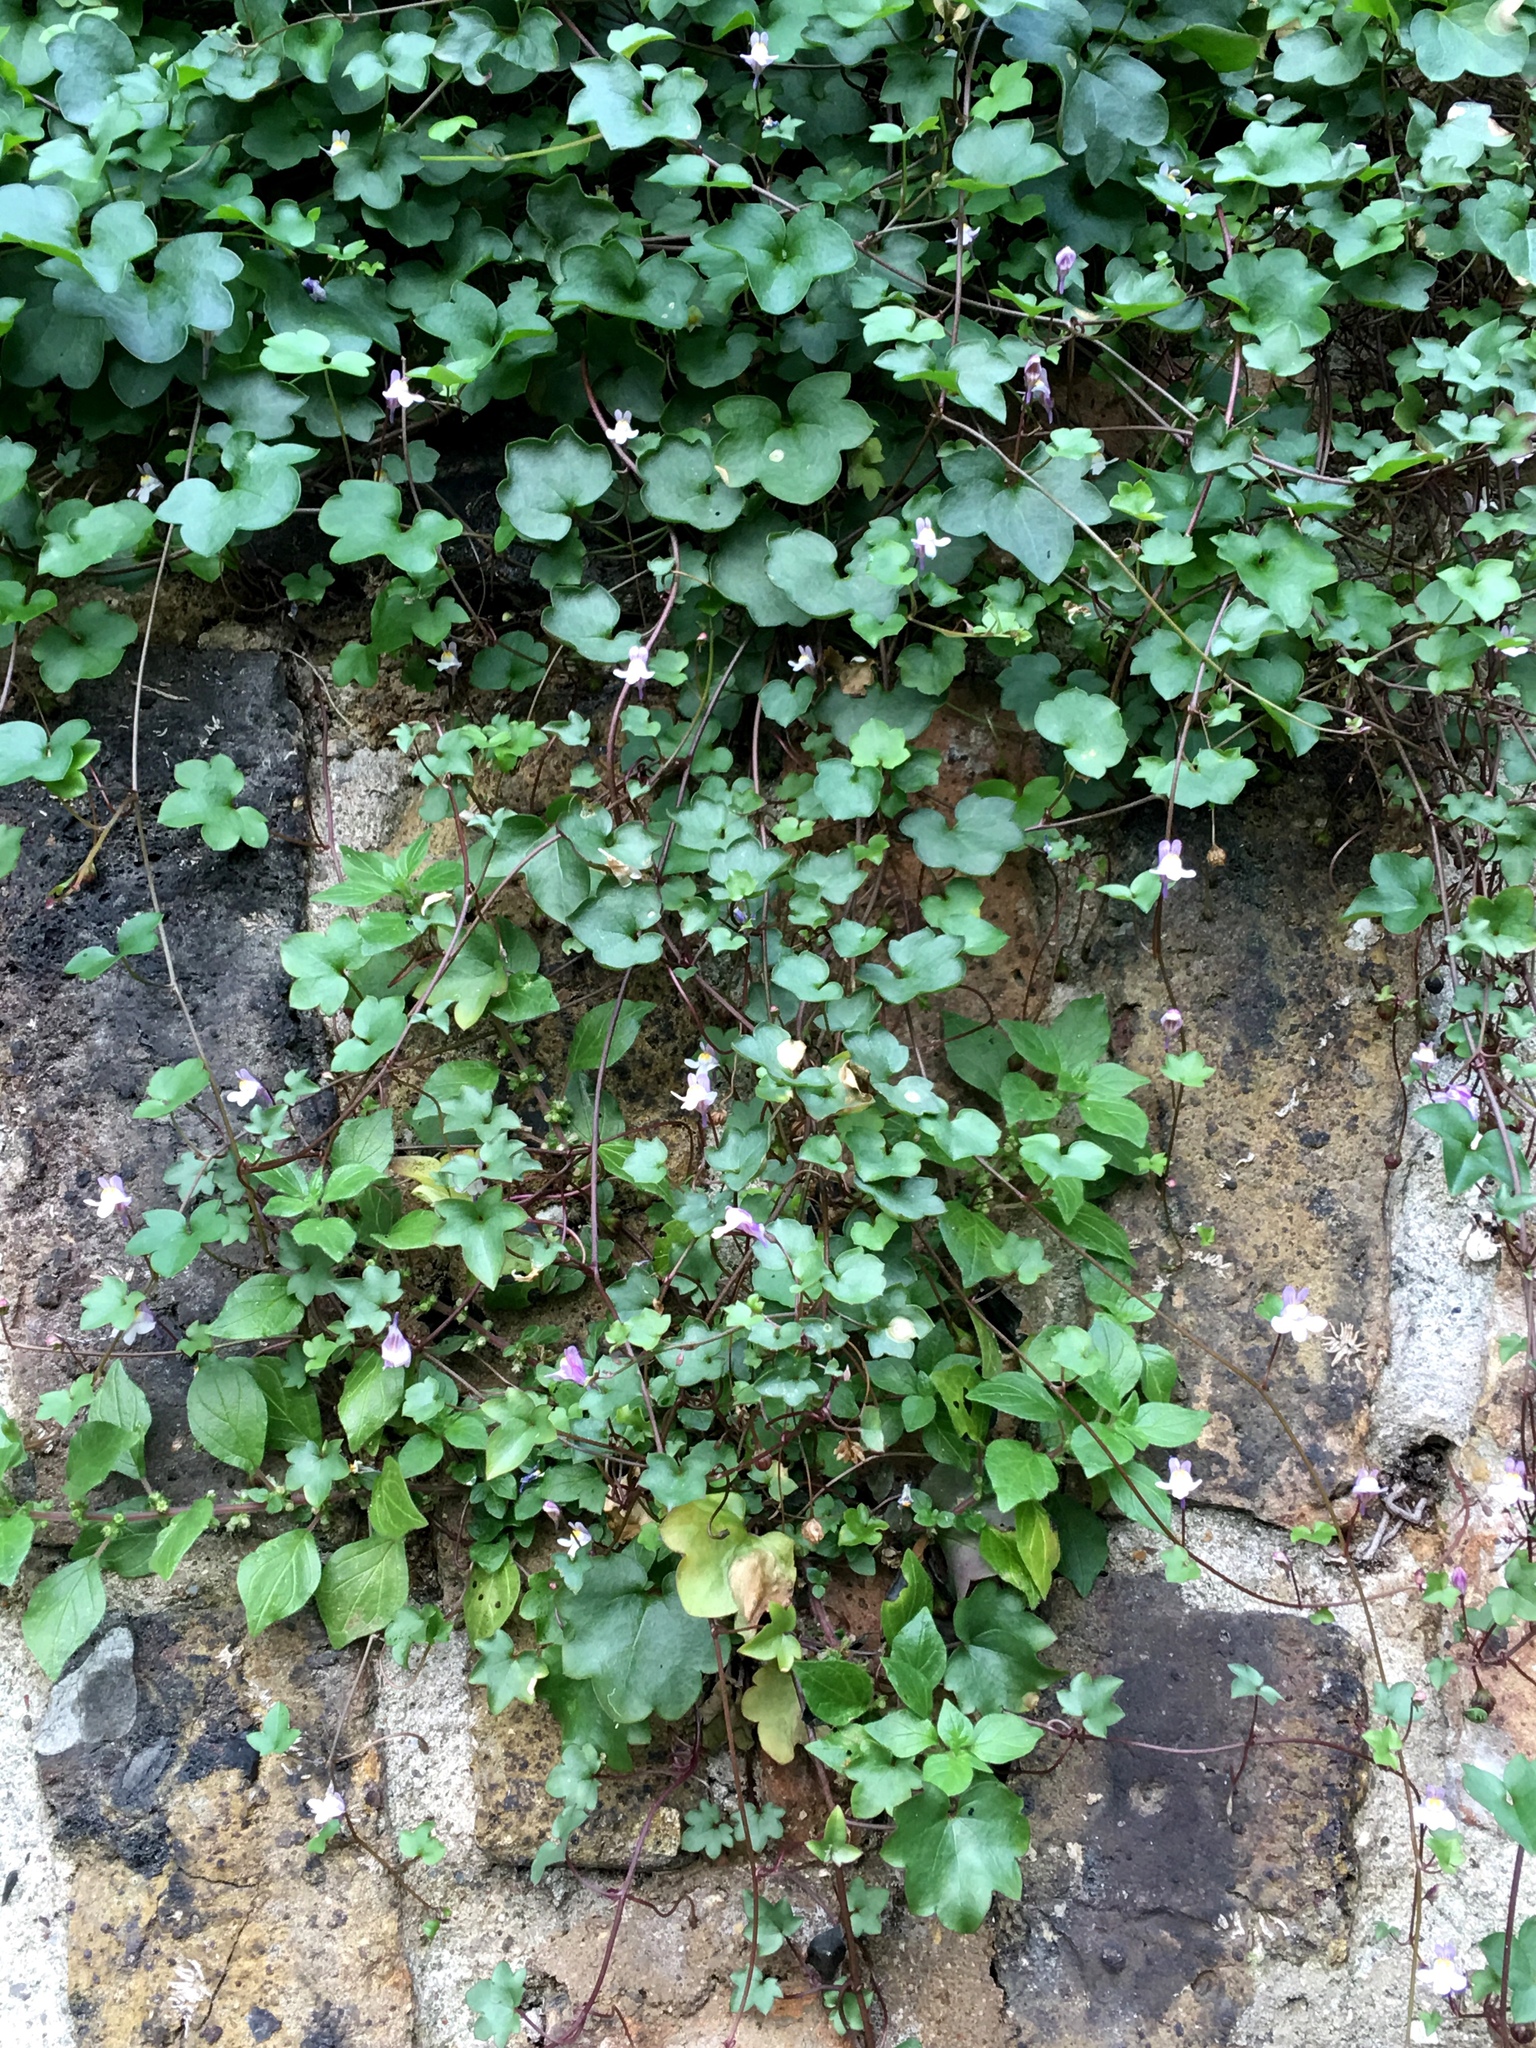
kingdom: Plantae
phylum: Tracheophyta
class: Magnoliopsida
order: Lamiales
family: Plantaginaceae
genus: Cymbalaria
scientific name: Cymbalaria muralis
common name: Ivy-leaved toadflax
